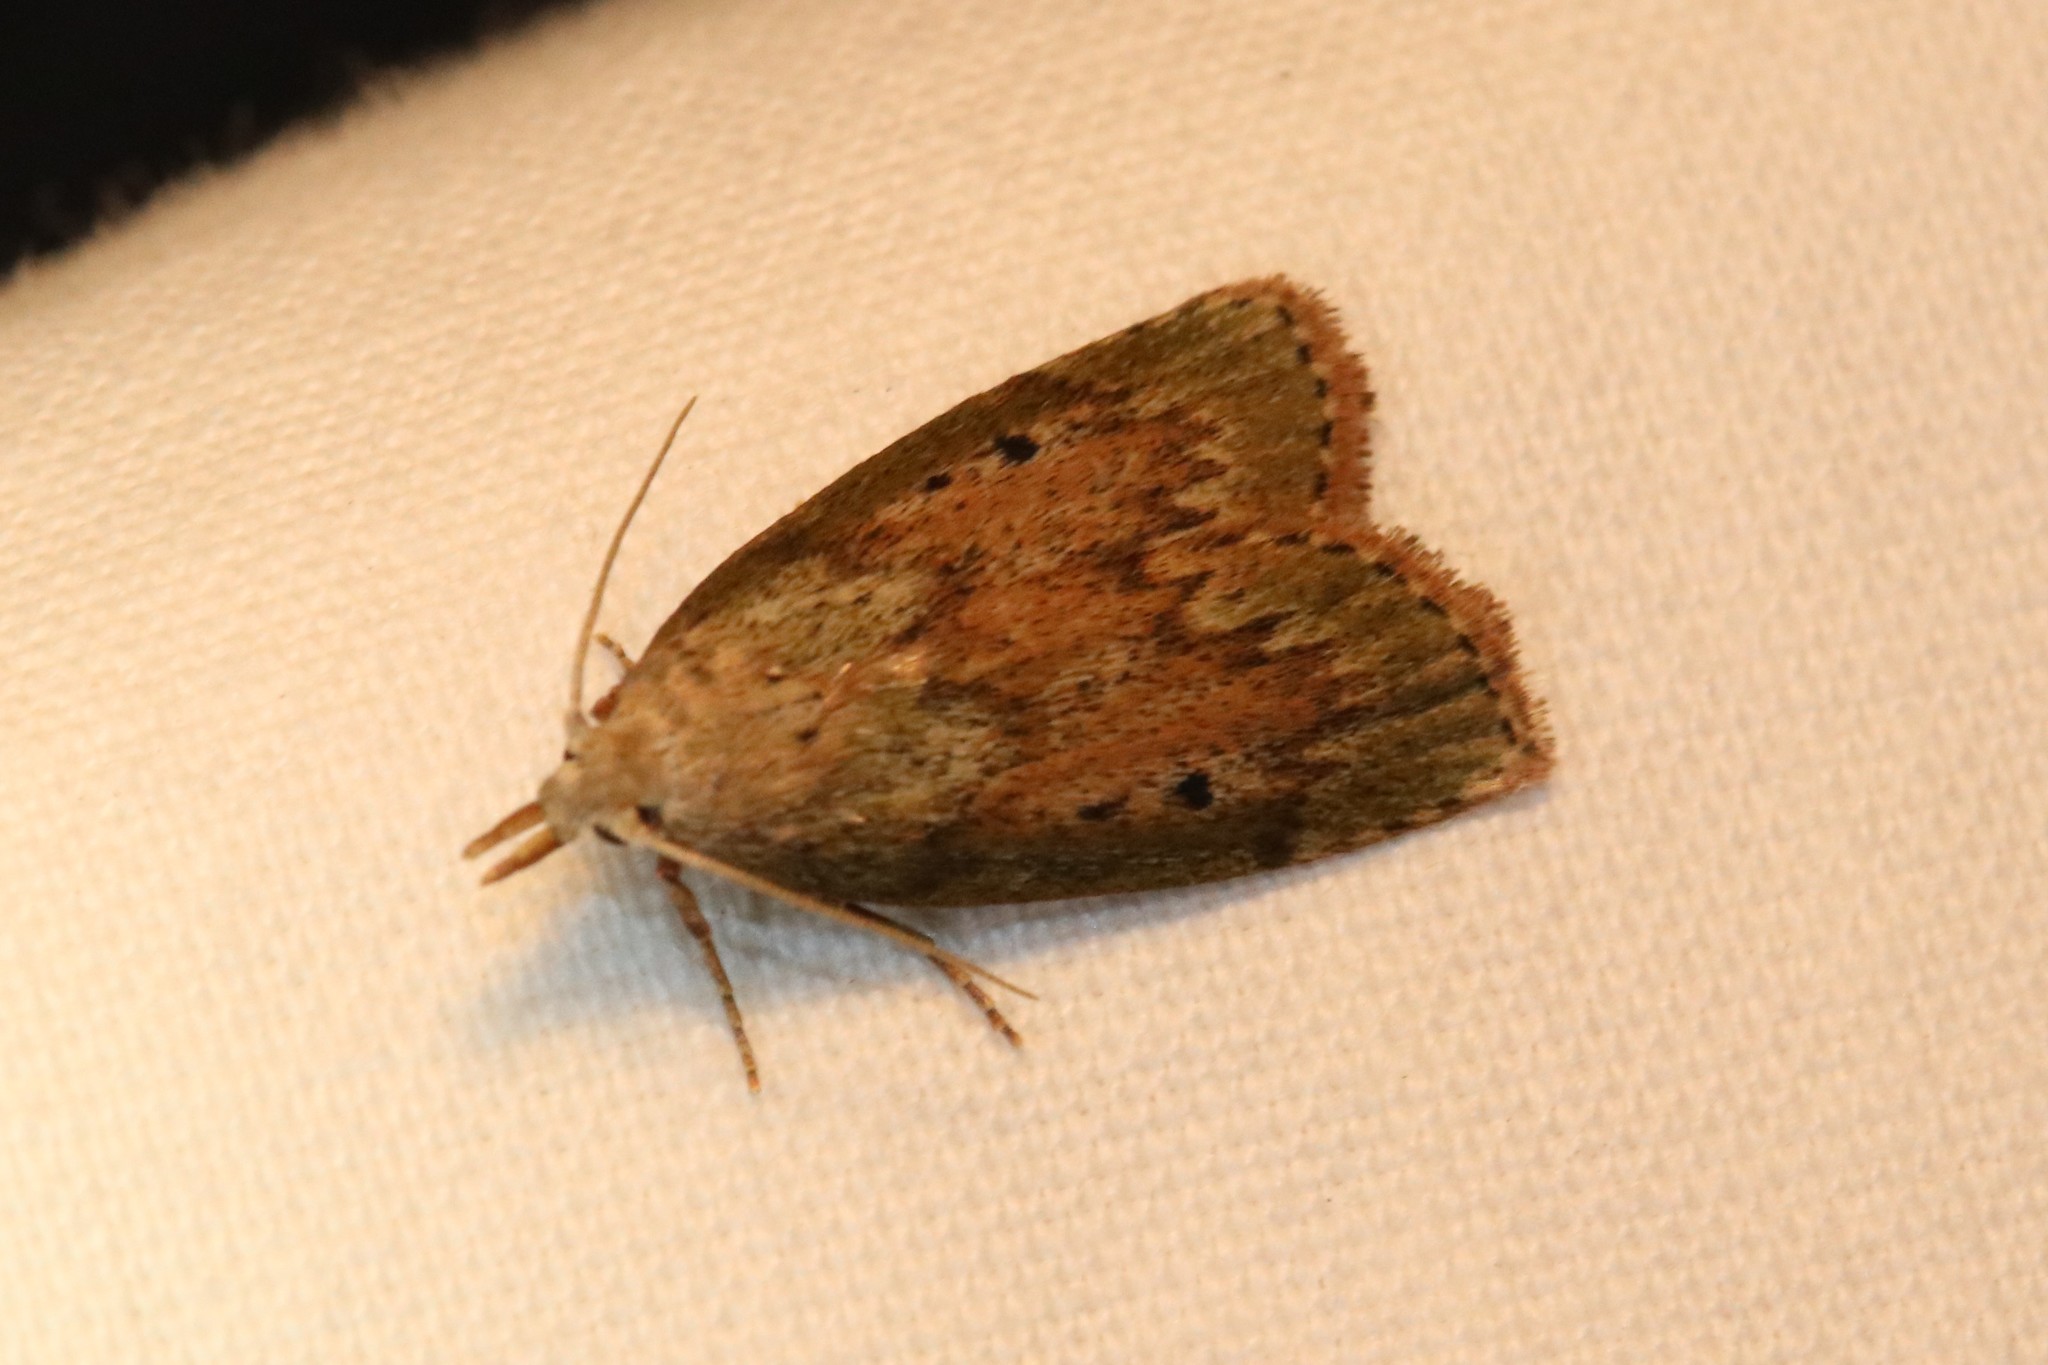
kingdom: Animalia
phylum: Arthropoda
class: Insecta
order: Lepidoptera
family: Pyralidae
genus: Aphomia
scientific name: Aphomia sociella
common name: Bee moth
